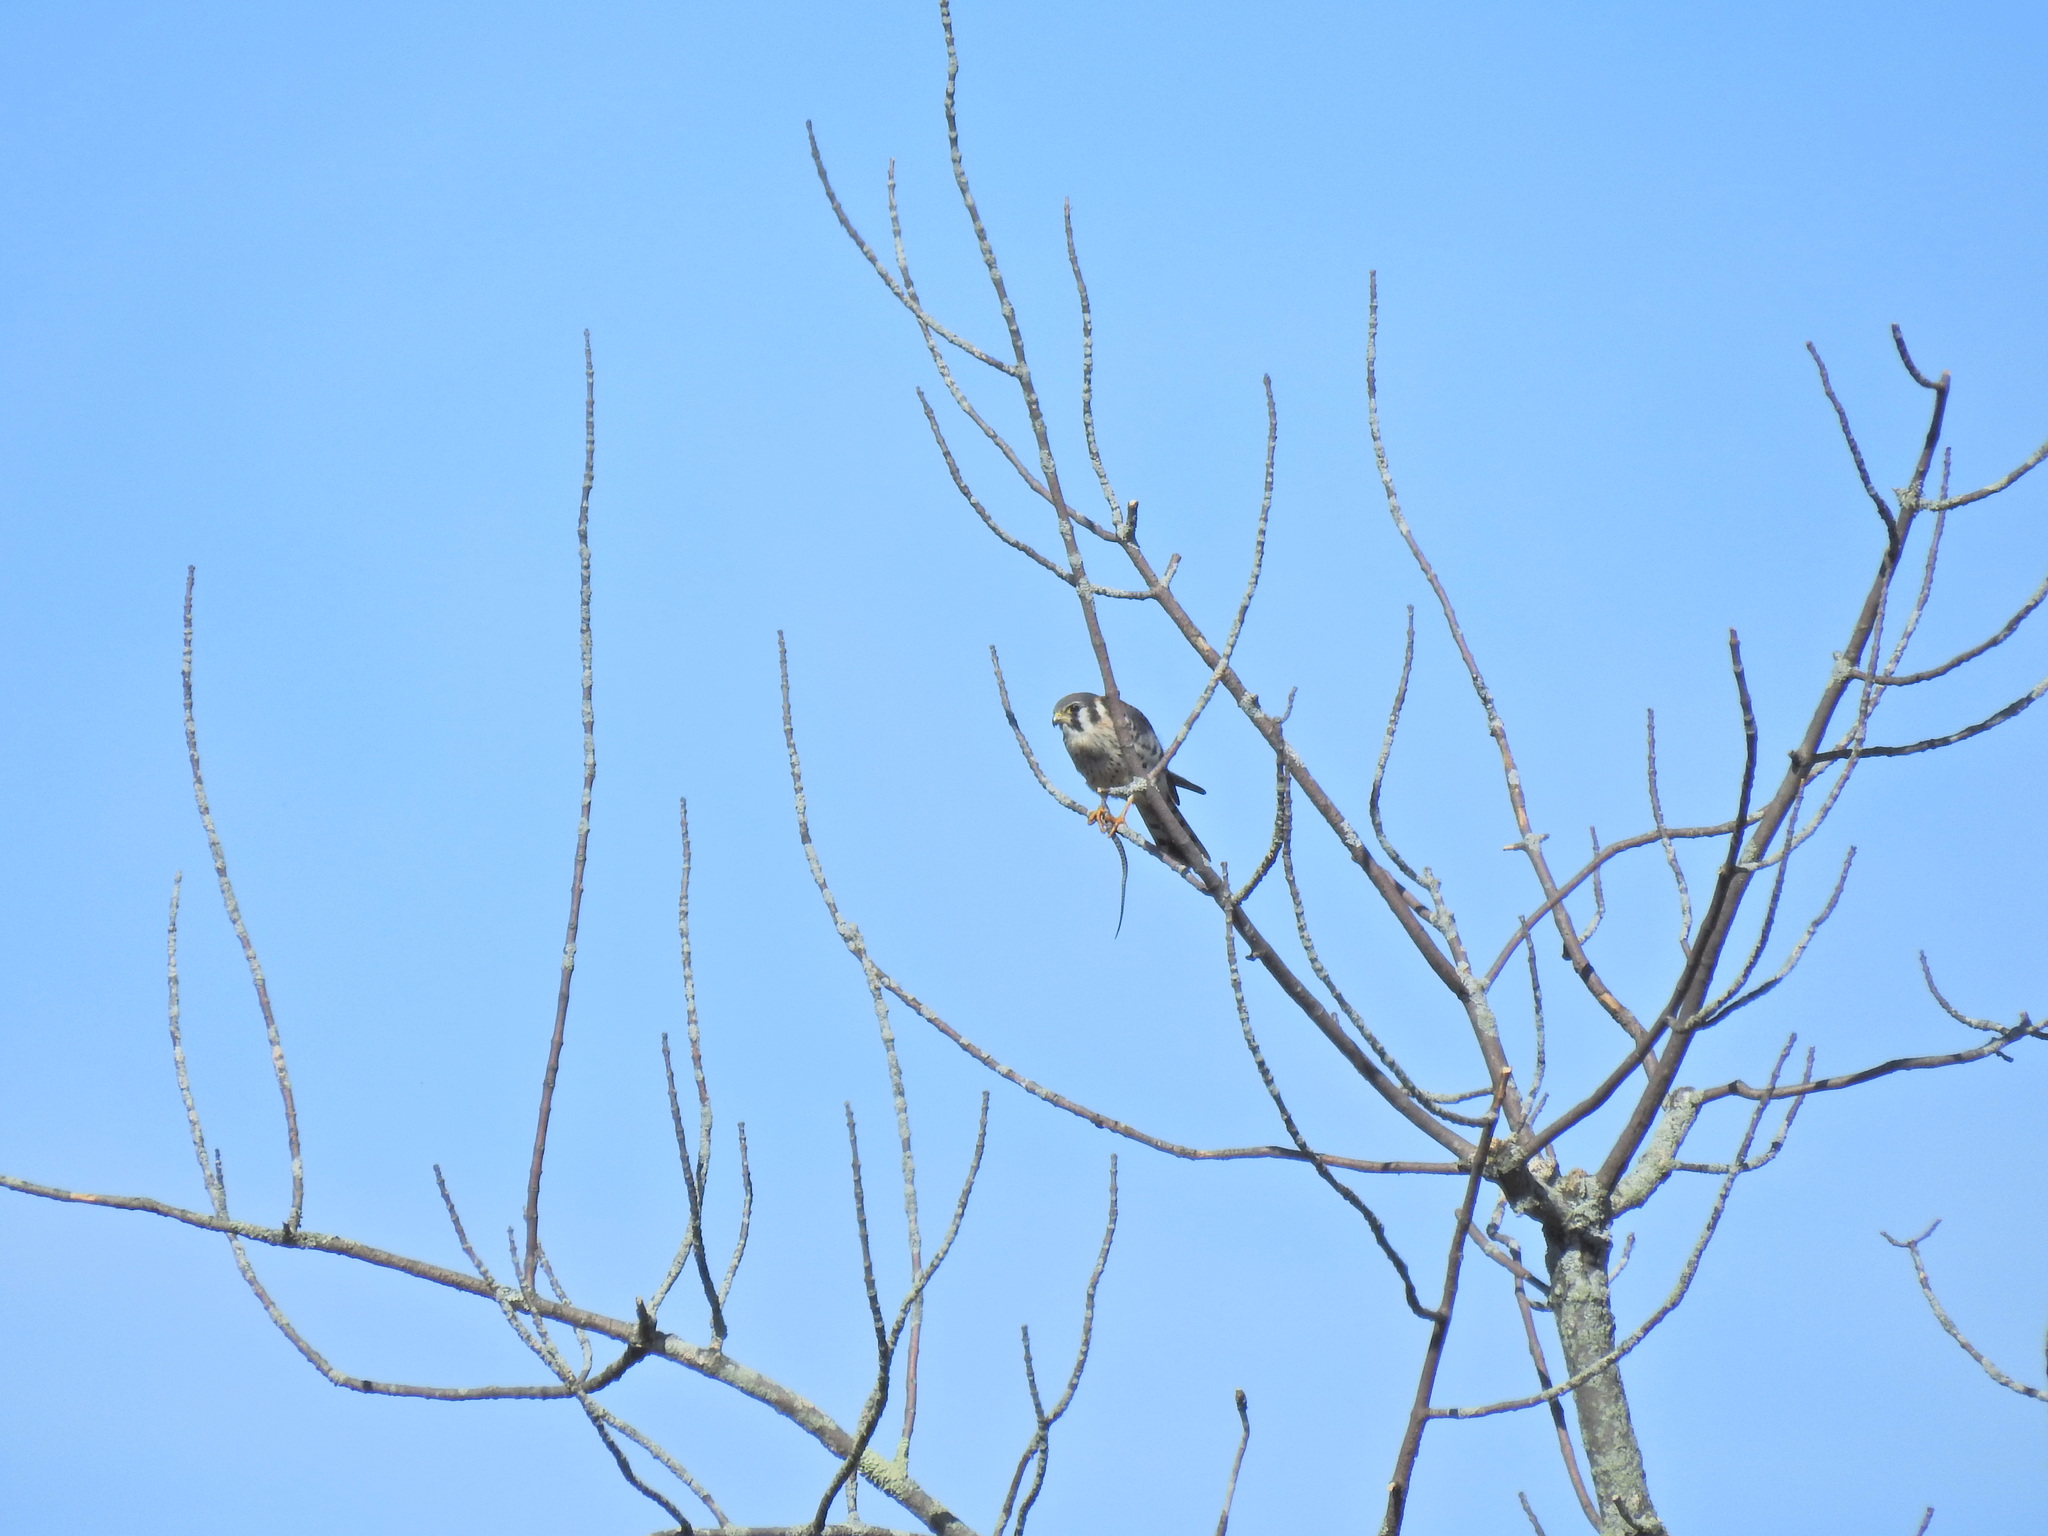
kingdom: Animalia
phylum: Chordata
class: Aves
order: Falconiformes
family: Falconidae
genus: Falco
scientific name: Falco sparverius
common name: American kestrel
